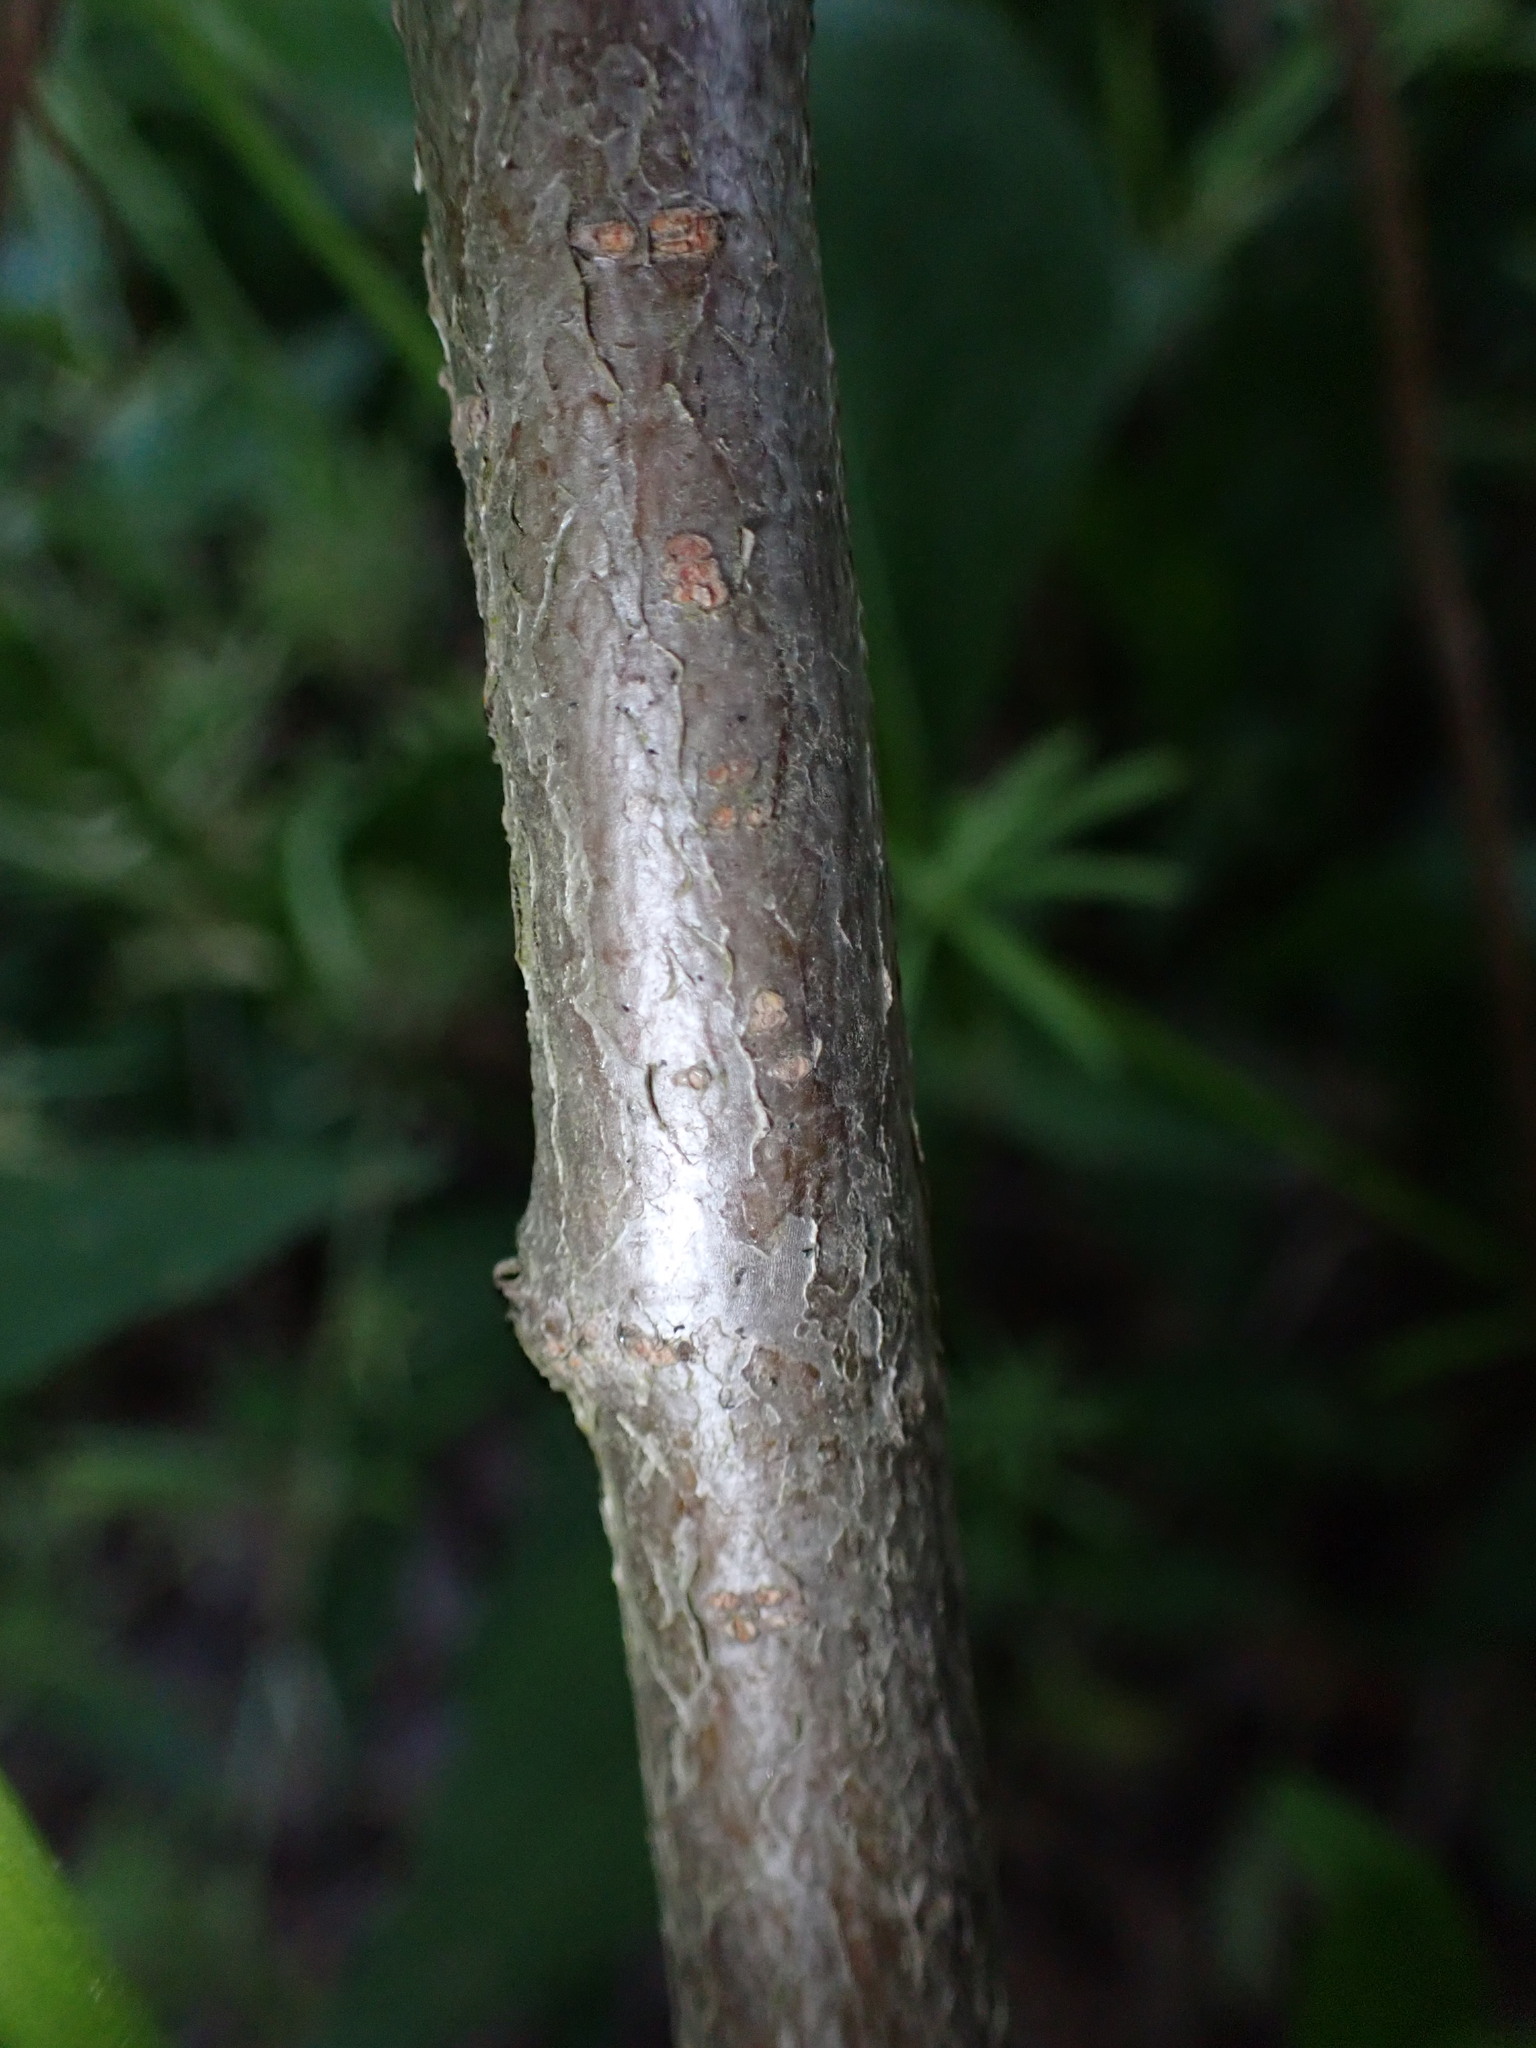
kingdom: Plantae
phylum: Tracheophyta
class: Magnoliopsida
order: Rosales
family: Rosaceae
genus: Aronia
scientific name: Aronia arbutifolia
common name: Red chokeberry
